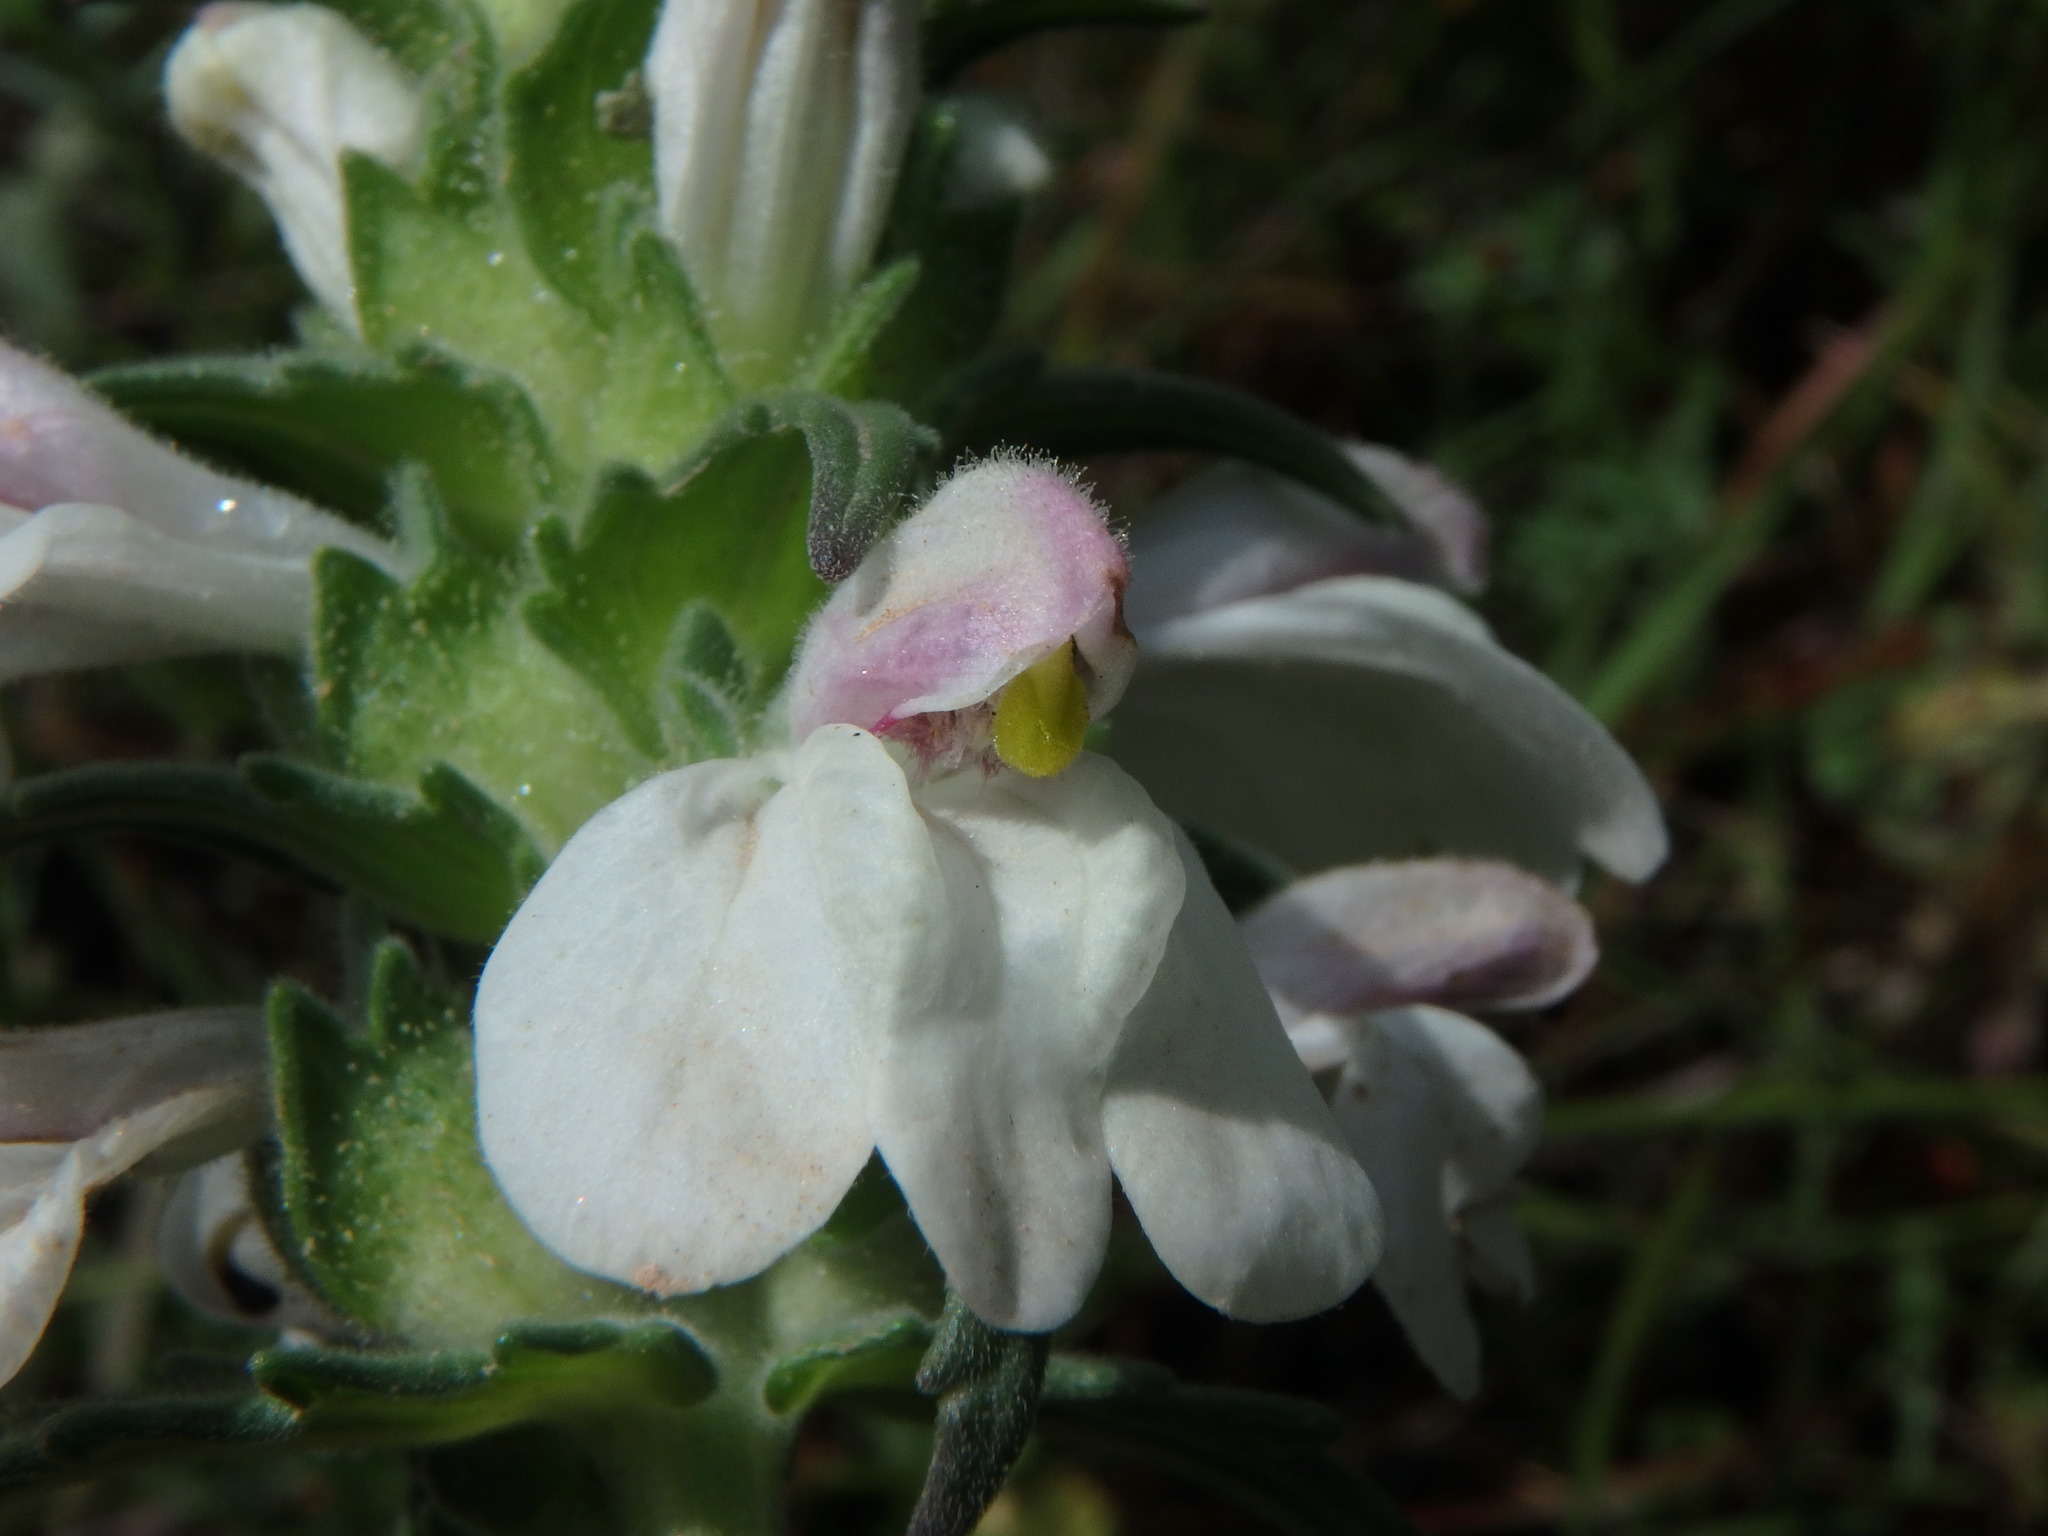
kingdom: Plantae
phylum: Tracheophyta
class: Magnoliopsida
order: Lamiales
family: Orobanchaceae
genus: Bellardia
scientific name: Bellardia trixago
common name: Mediterranean lineseed
